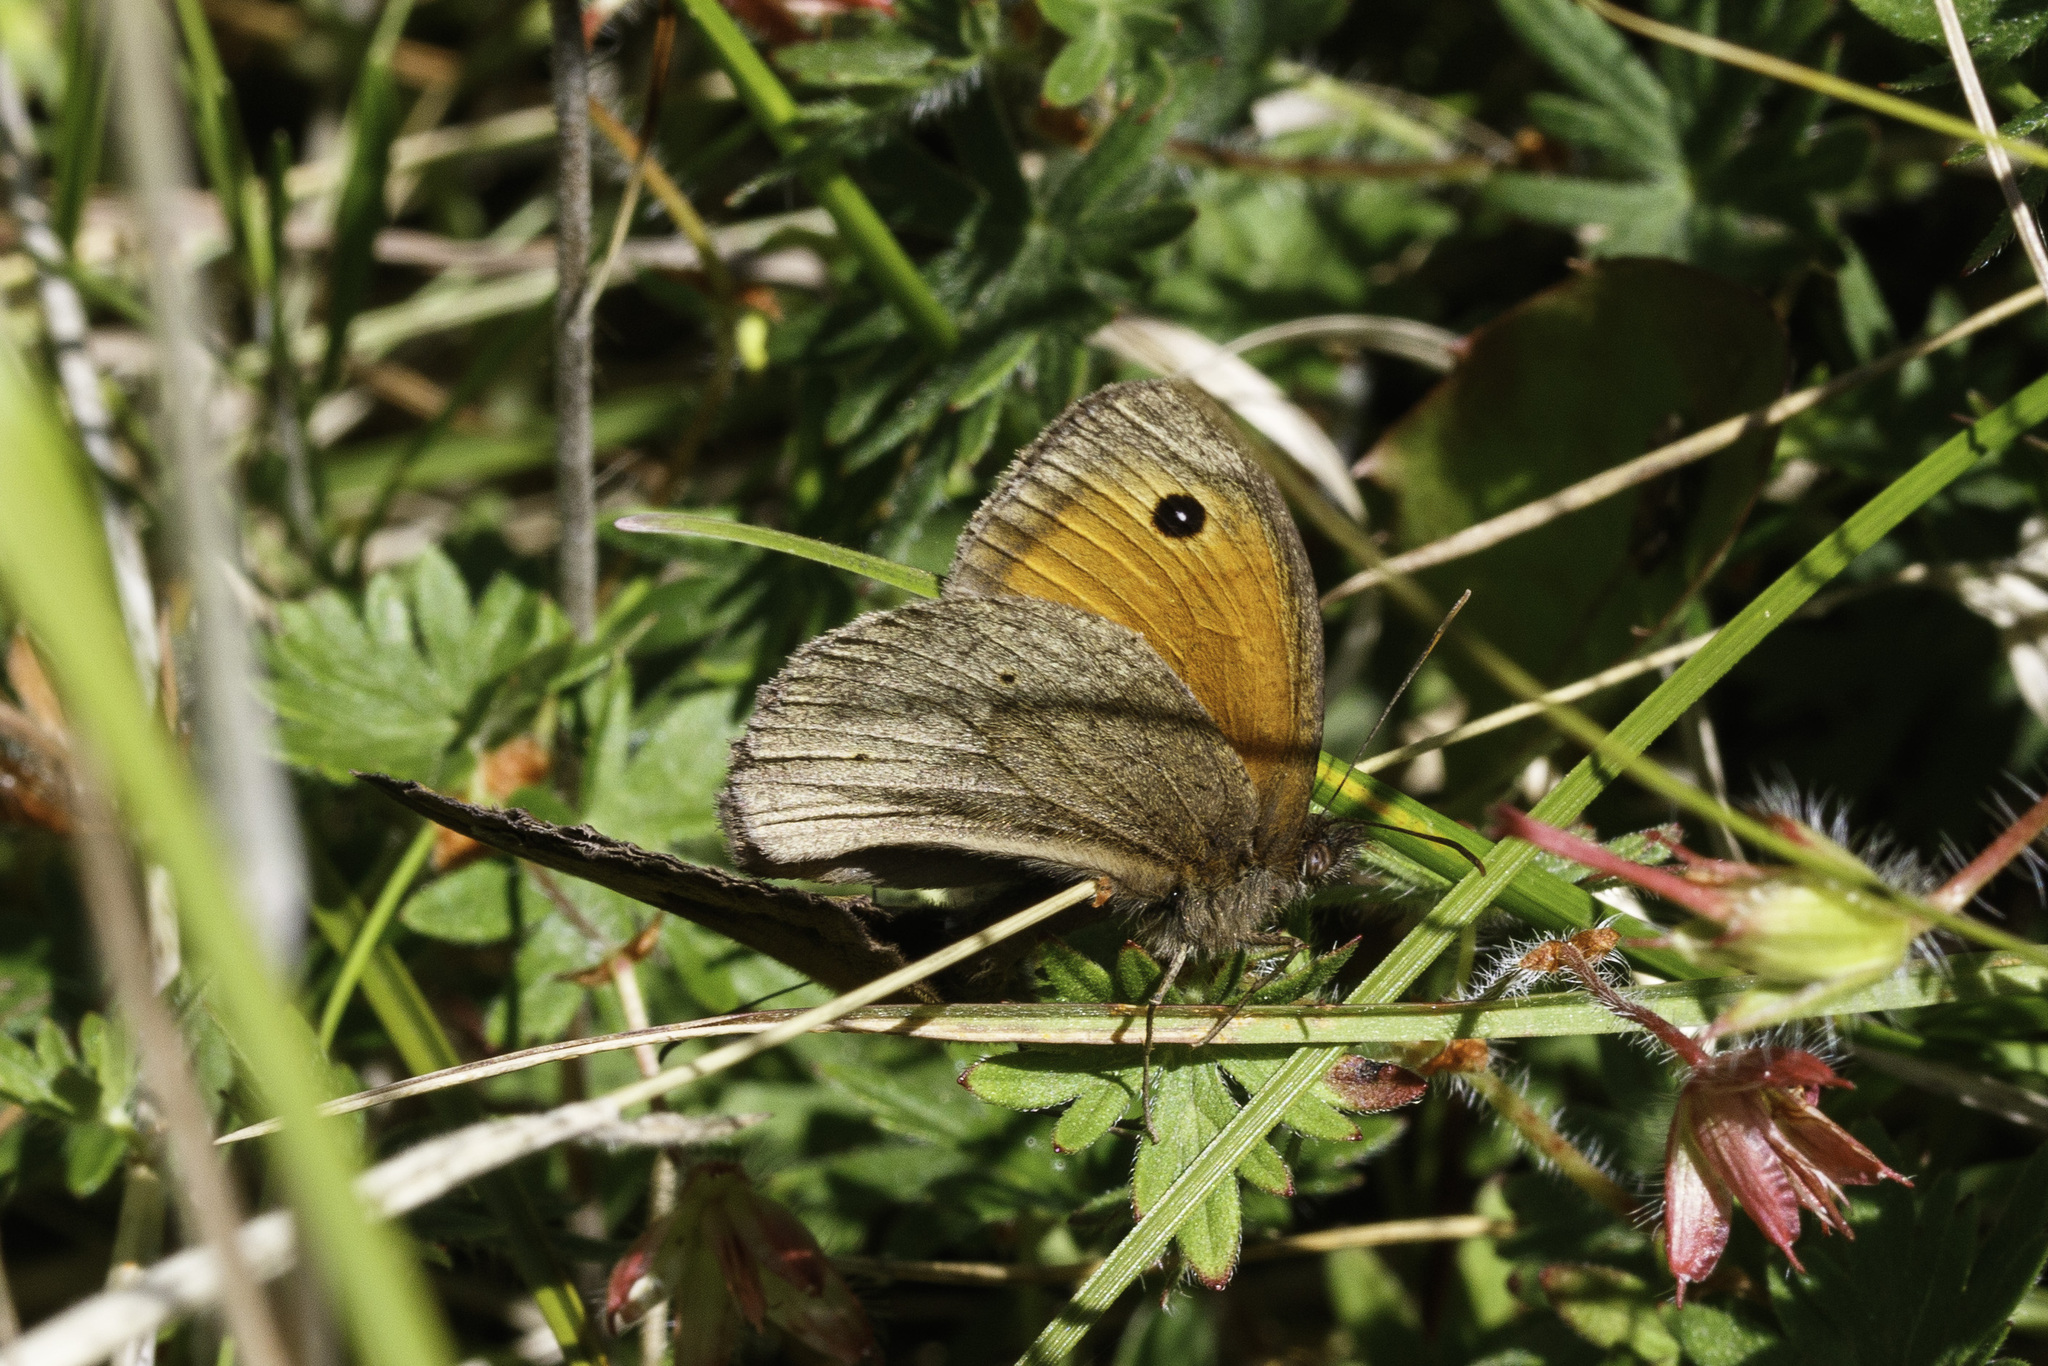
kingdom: Animalia
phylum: Arthropoda
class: Insecta
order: Lepidoptera
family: Nymphalidae
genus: Maniola
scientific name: Maniola jurtina
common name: Meadow brown
